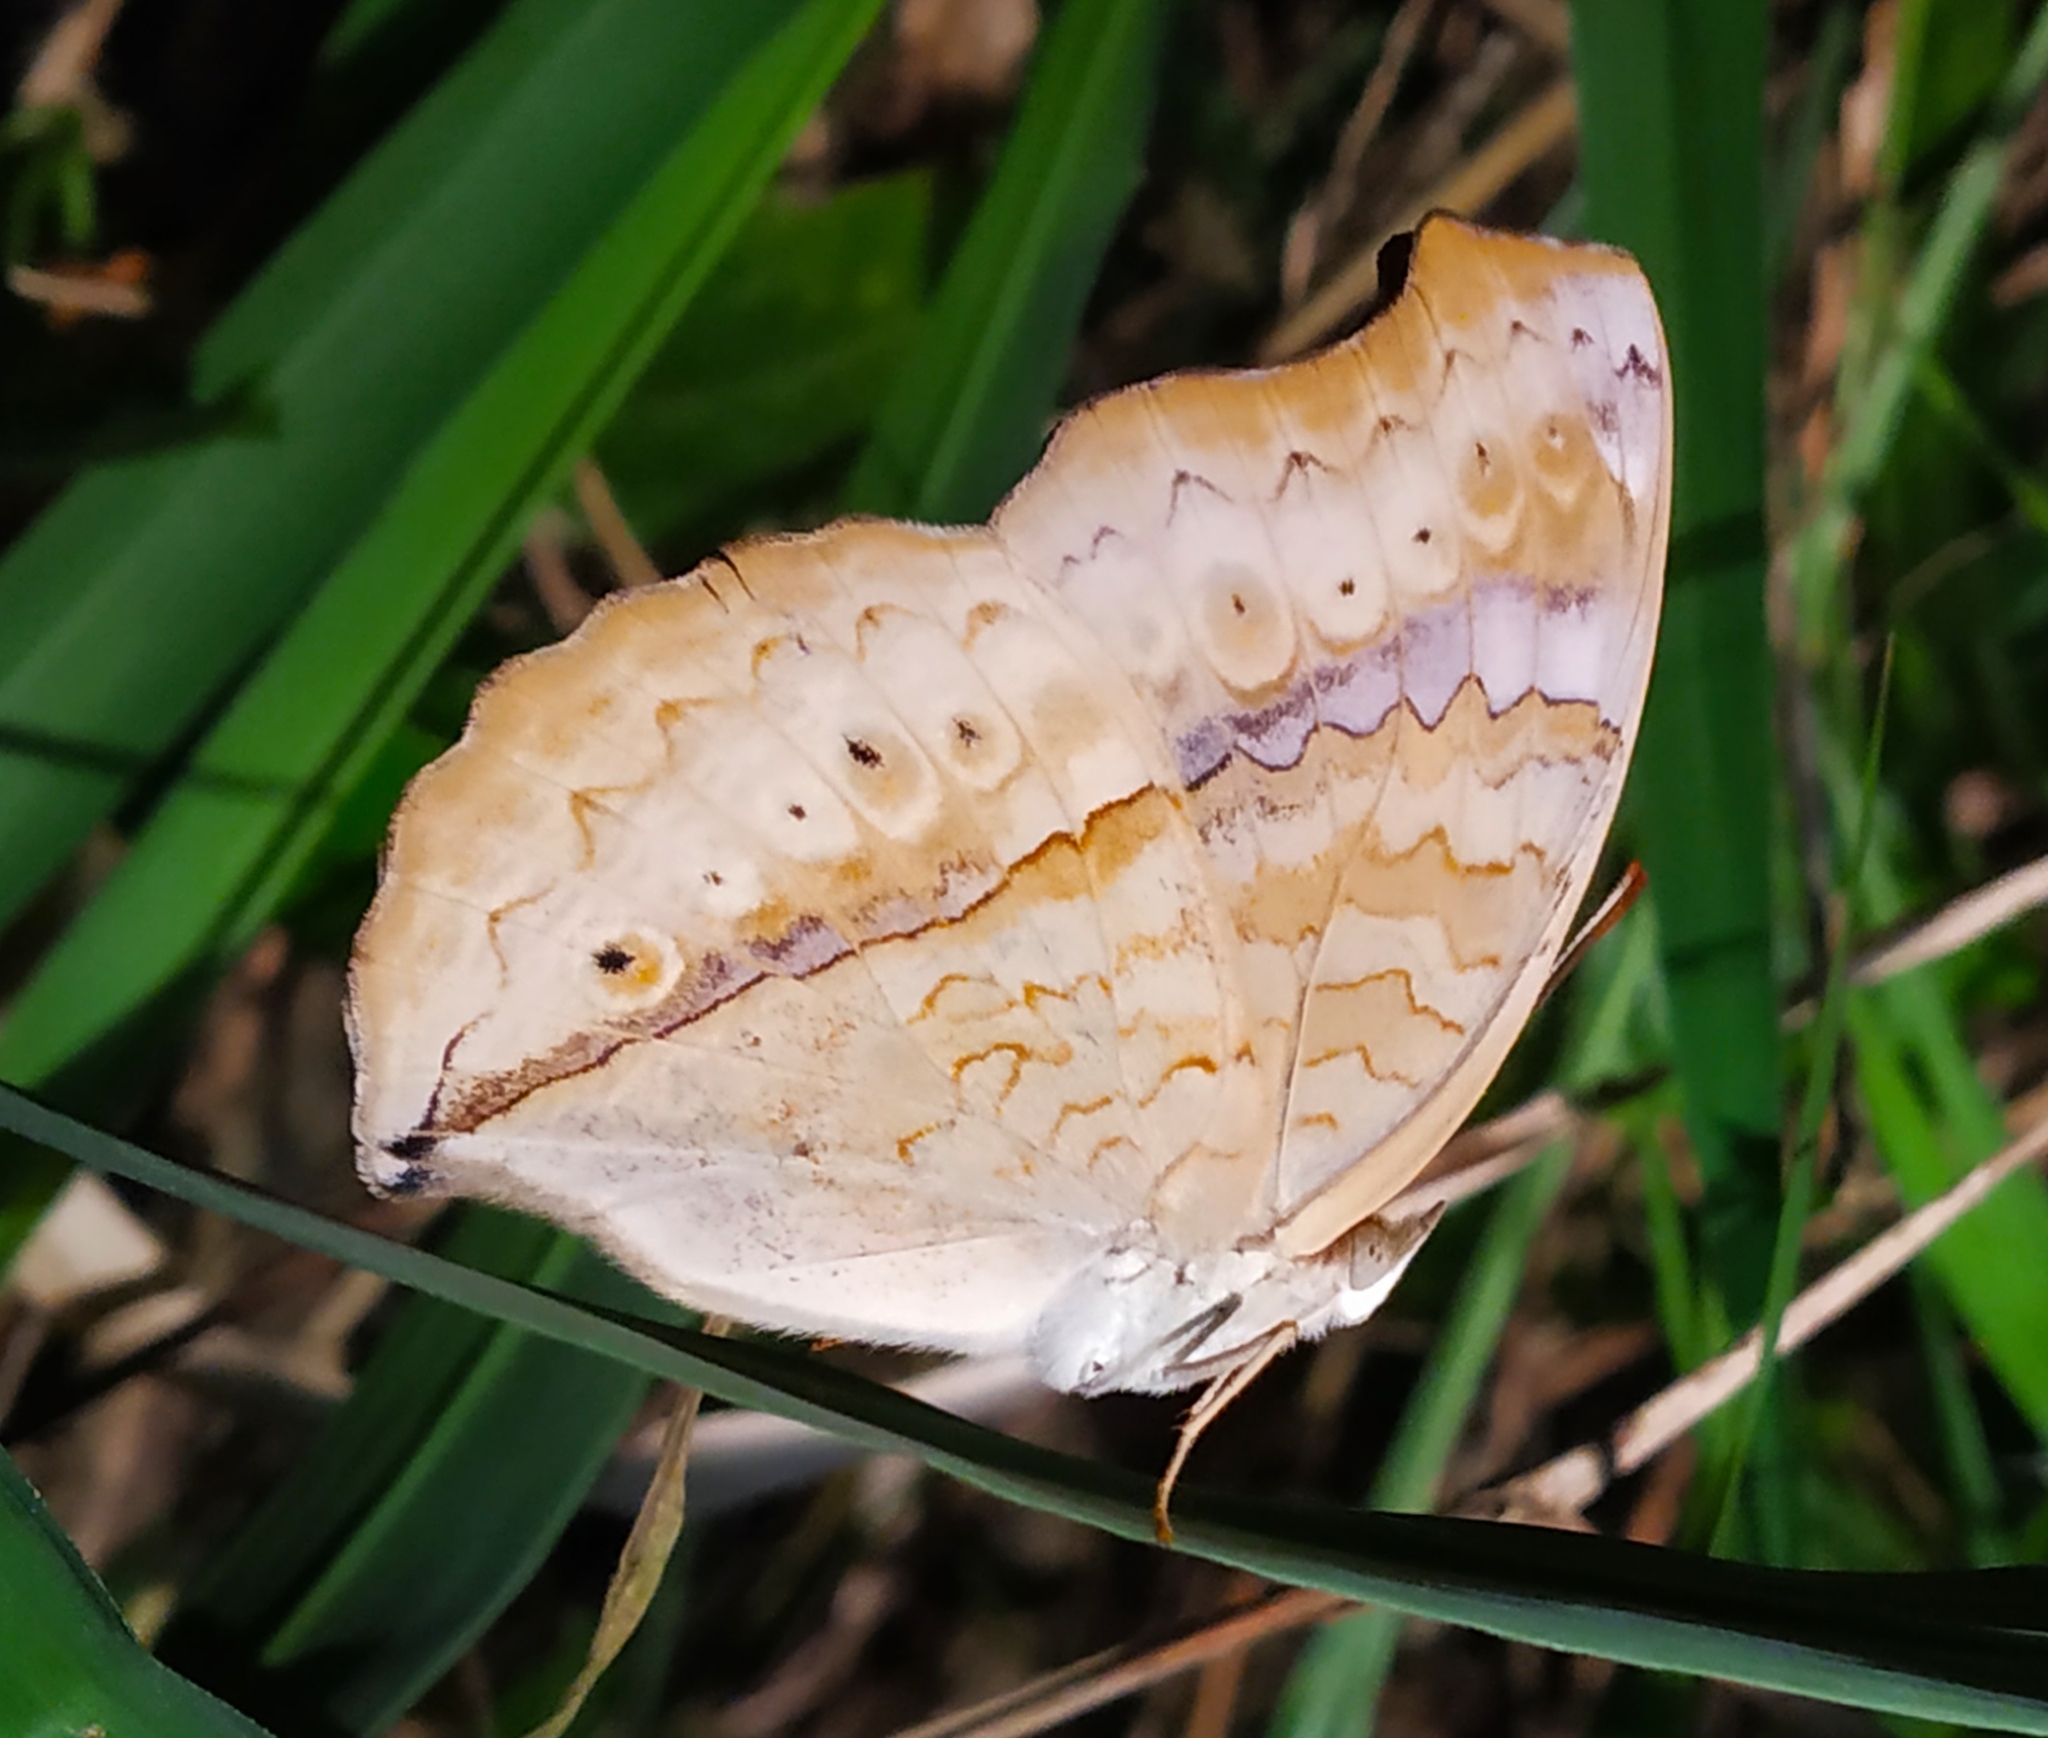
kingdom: Animalia
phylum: Arthropoda
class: Insecta
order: Lepidoptera
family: Nymphalidae
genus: Junonia
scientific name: Junonia atlites
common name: Grey pansy
